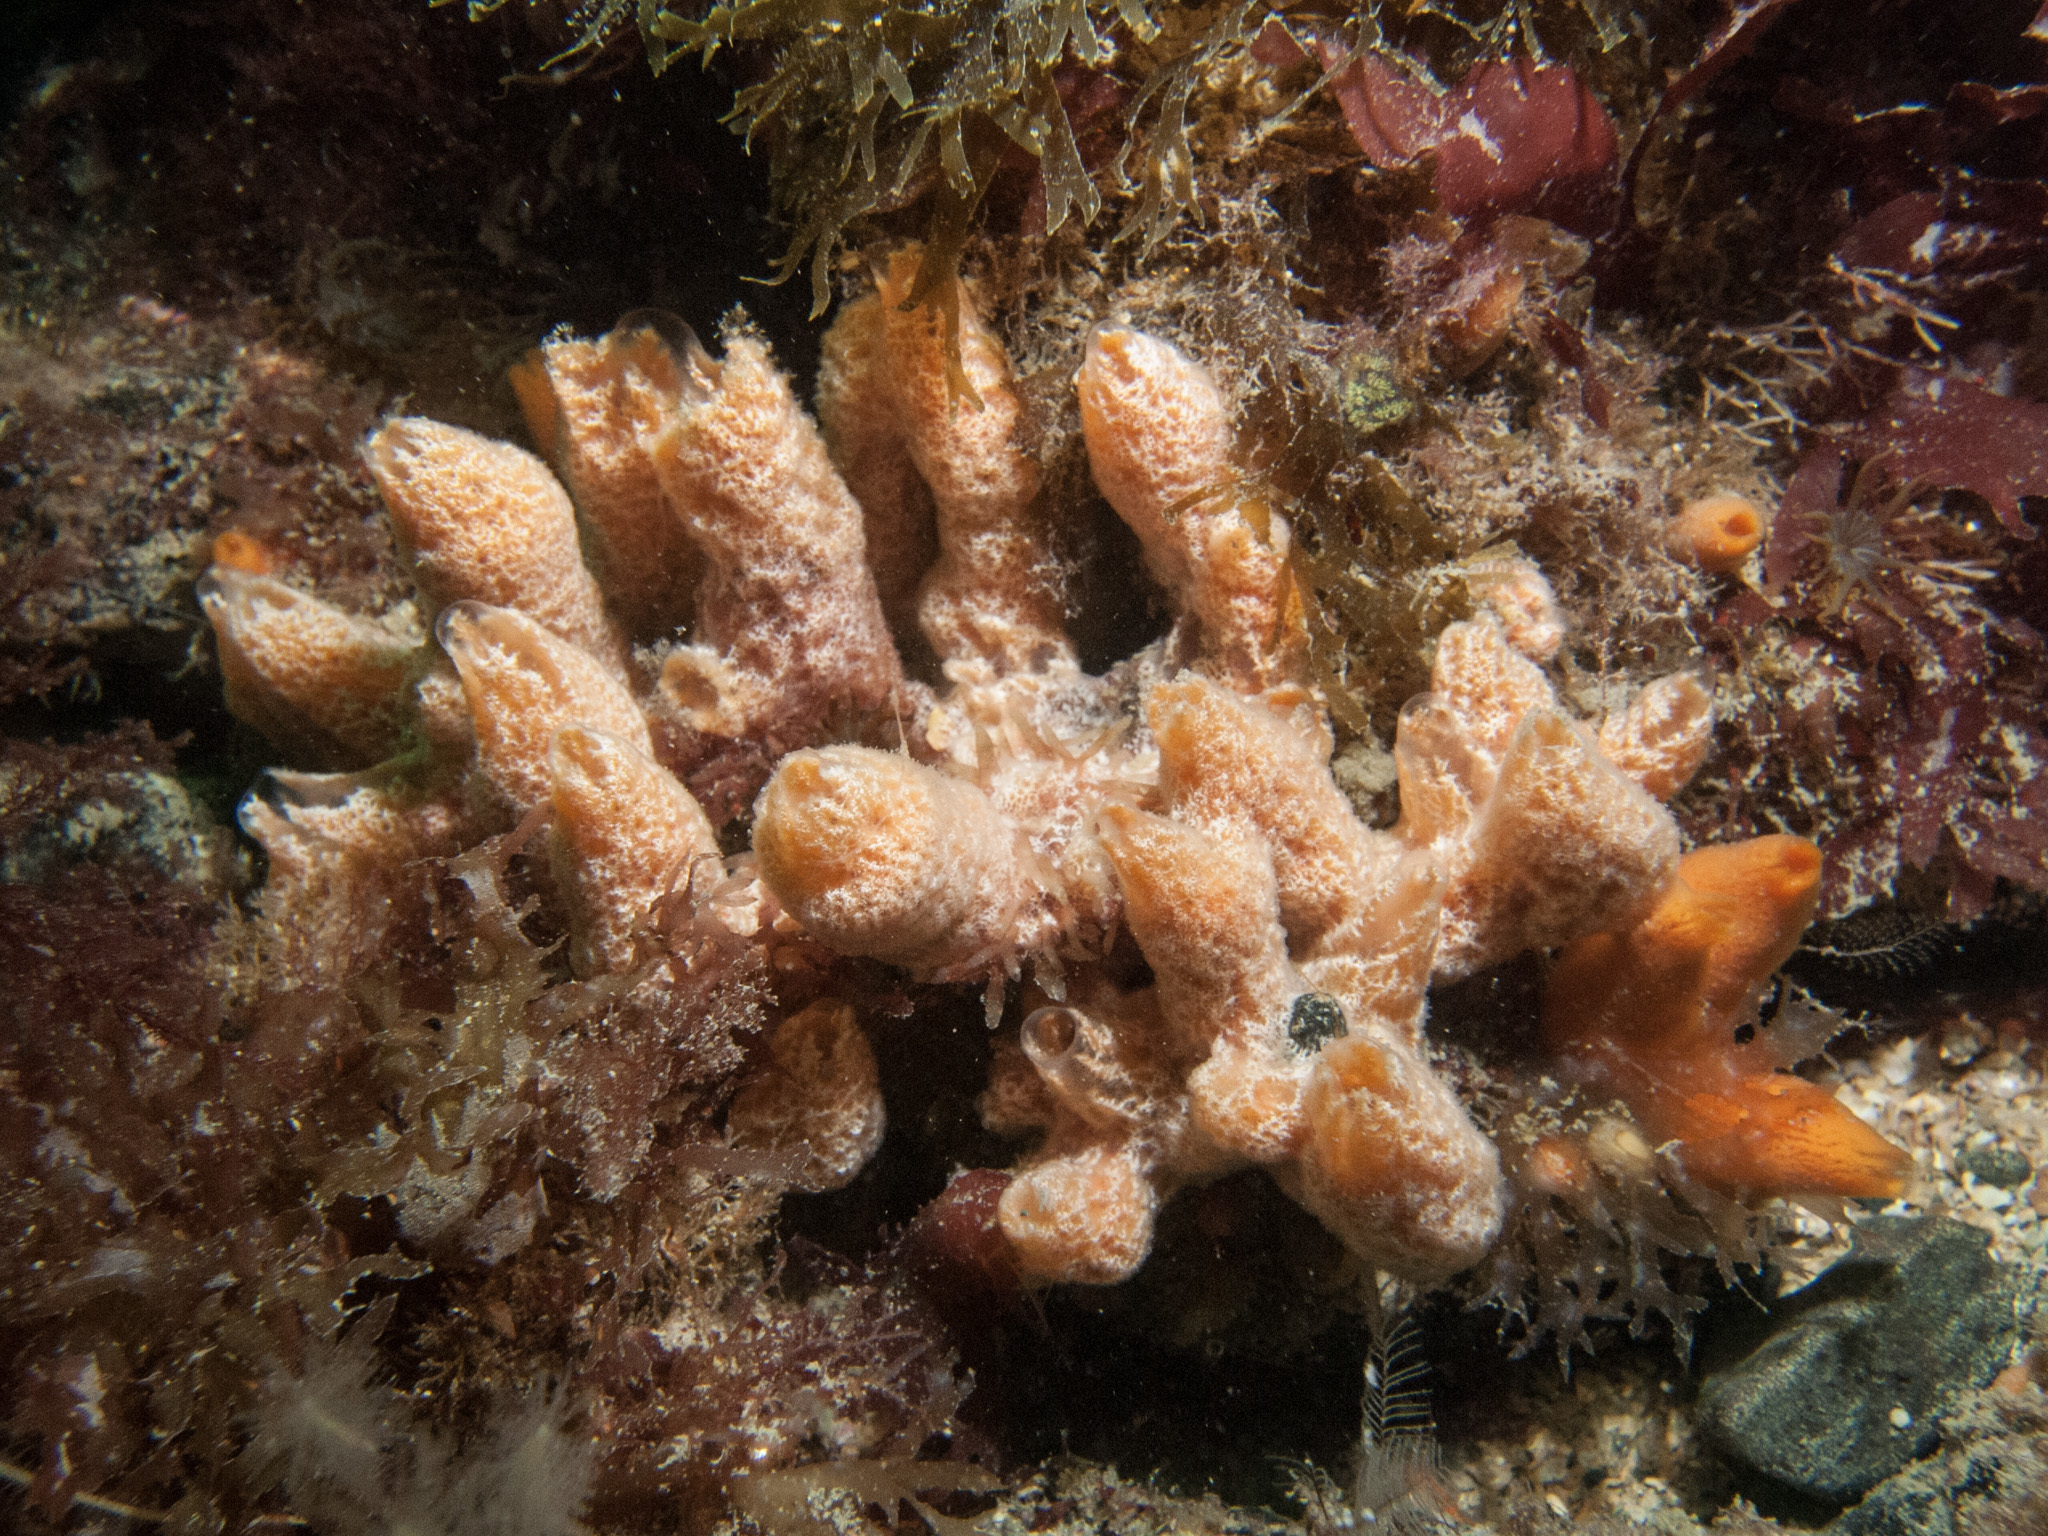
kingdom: Animalia
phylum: Porifera
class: Demospongiae
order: Poecilosclerida
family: Esperiopsidae
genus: Ulosa
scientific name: Ulosa digitata
